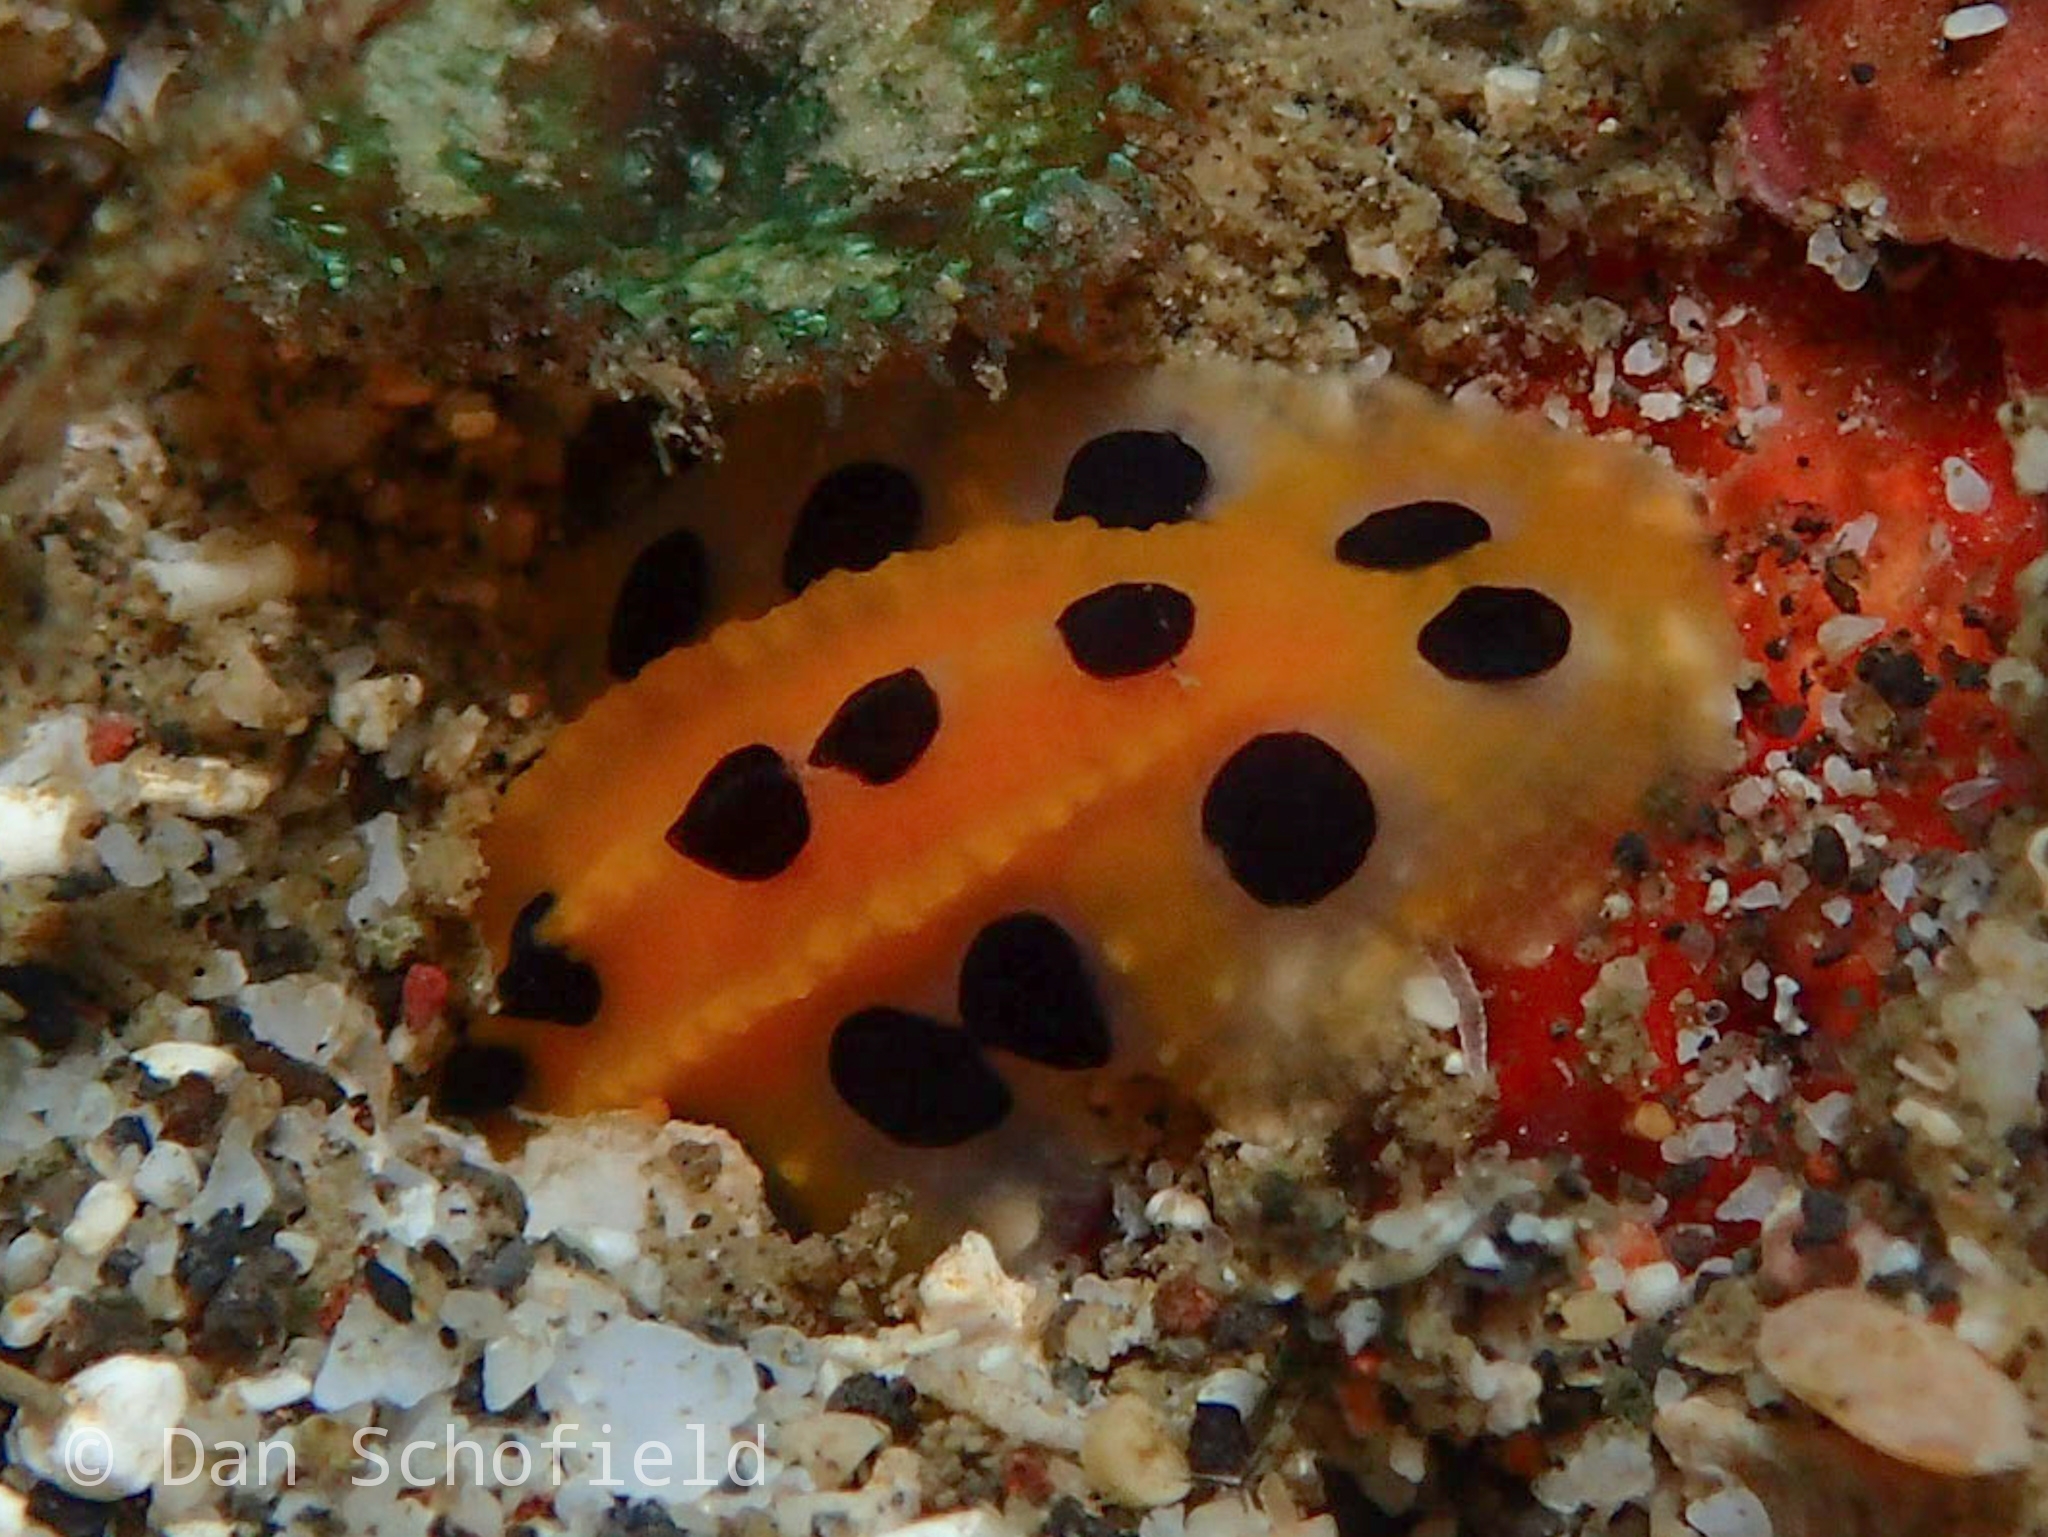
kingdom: Animalia
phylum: Mollusca
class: Gastropoda
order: Nudibranchia
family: Phyllidiidae
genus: Phyllidia
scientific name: Phyllidia polkadotsa
